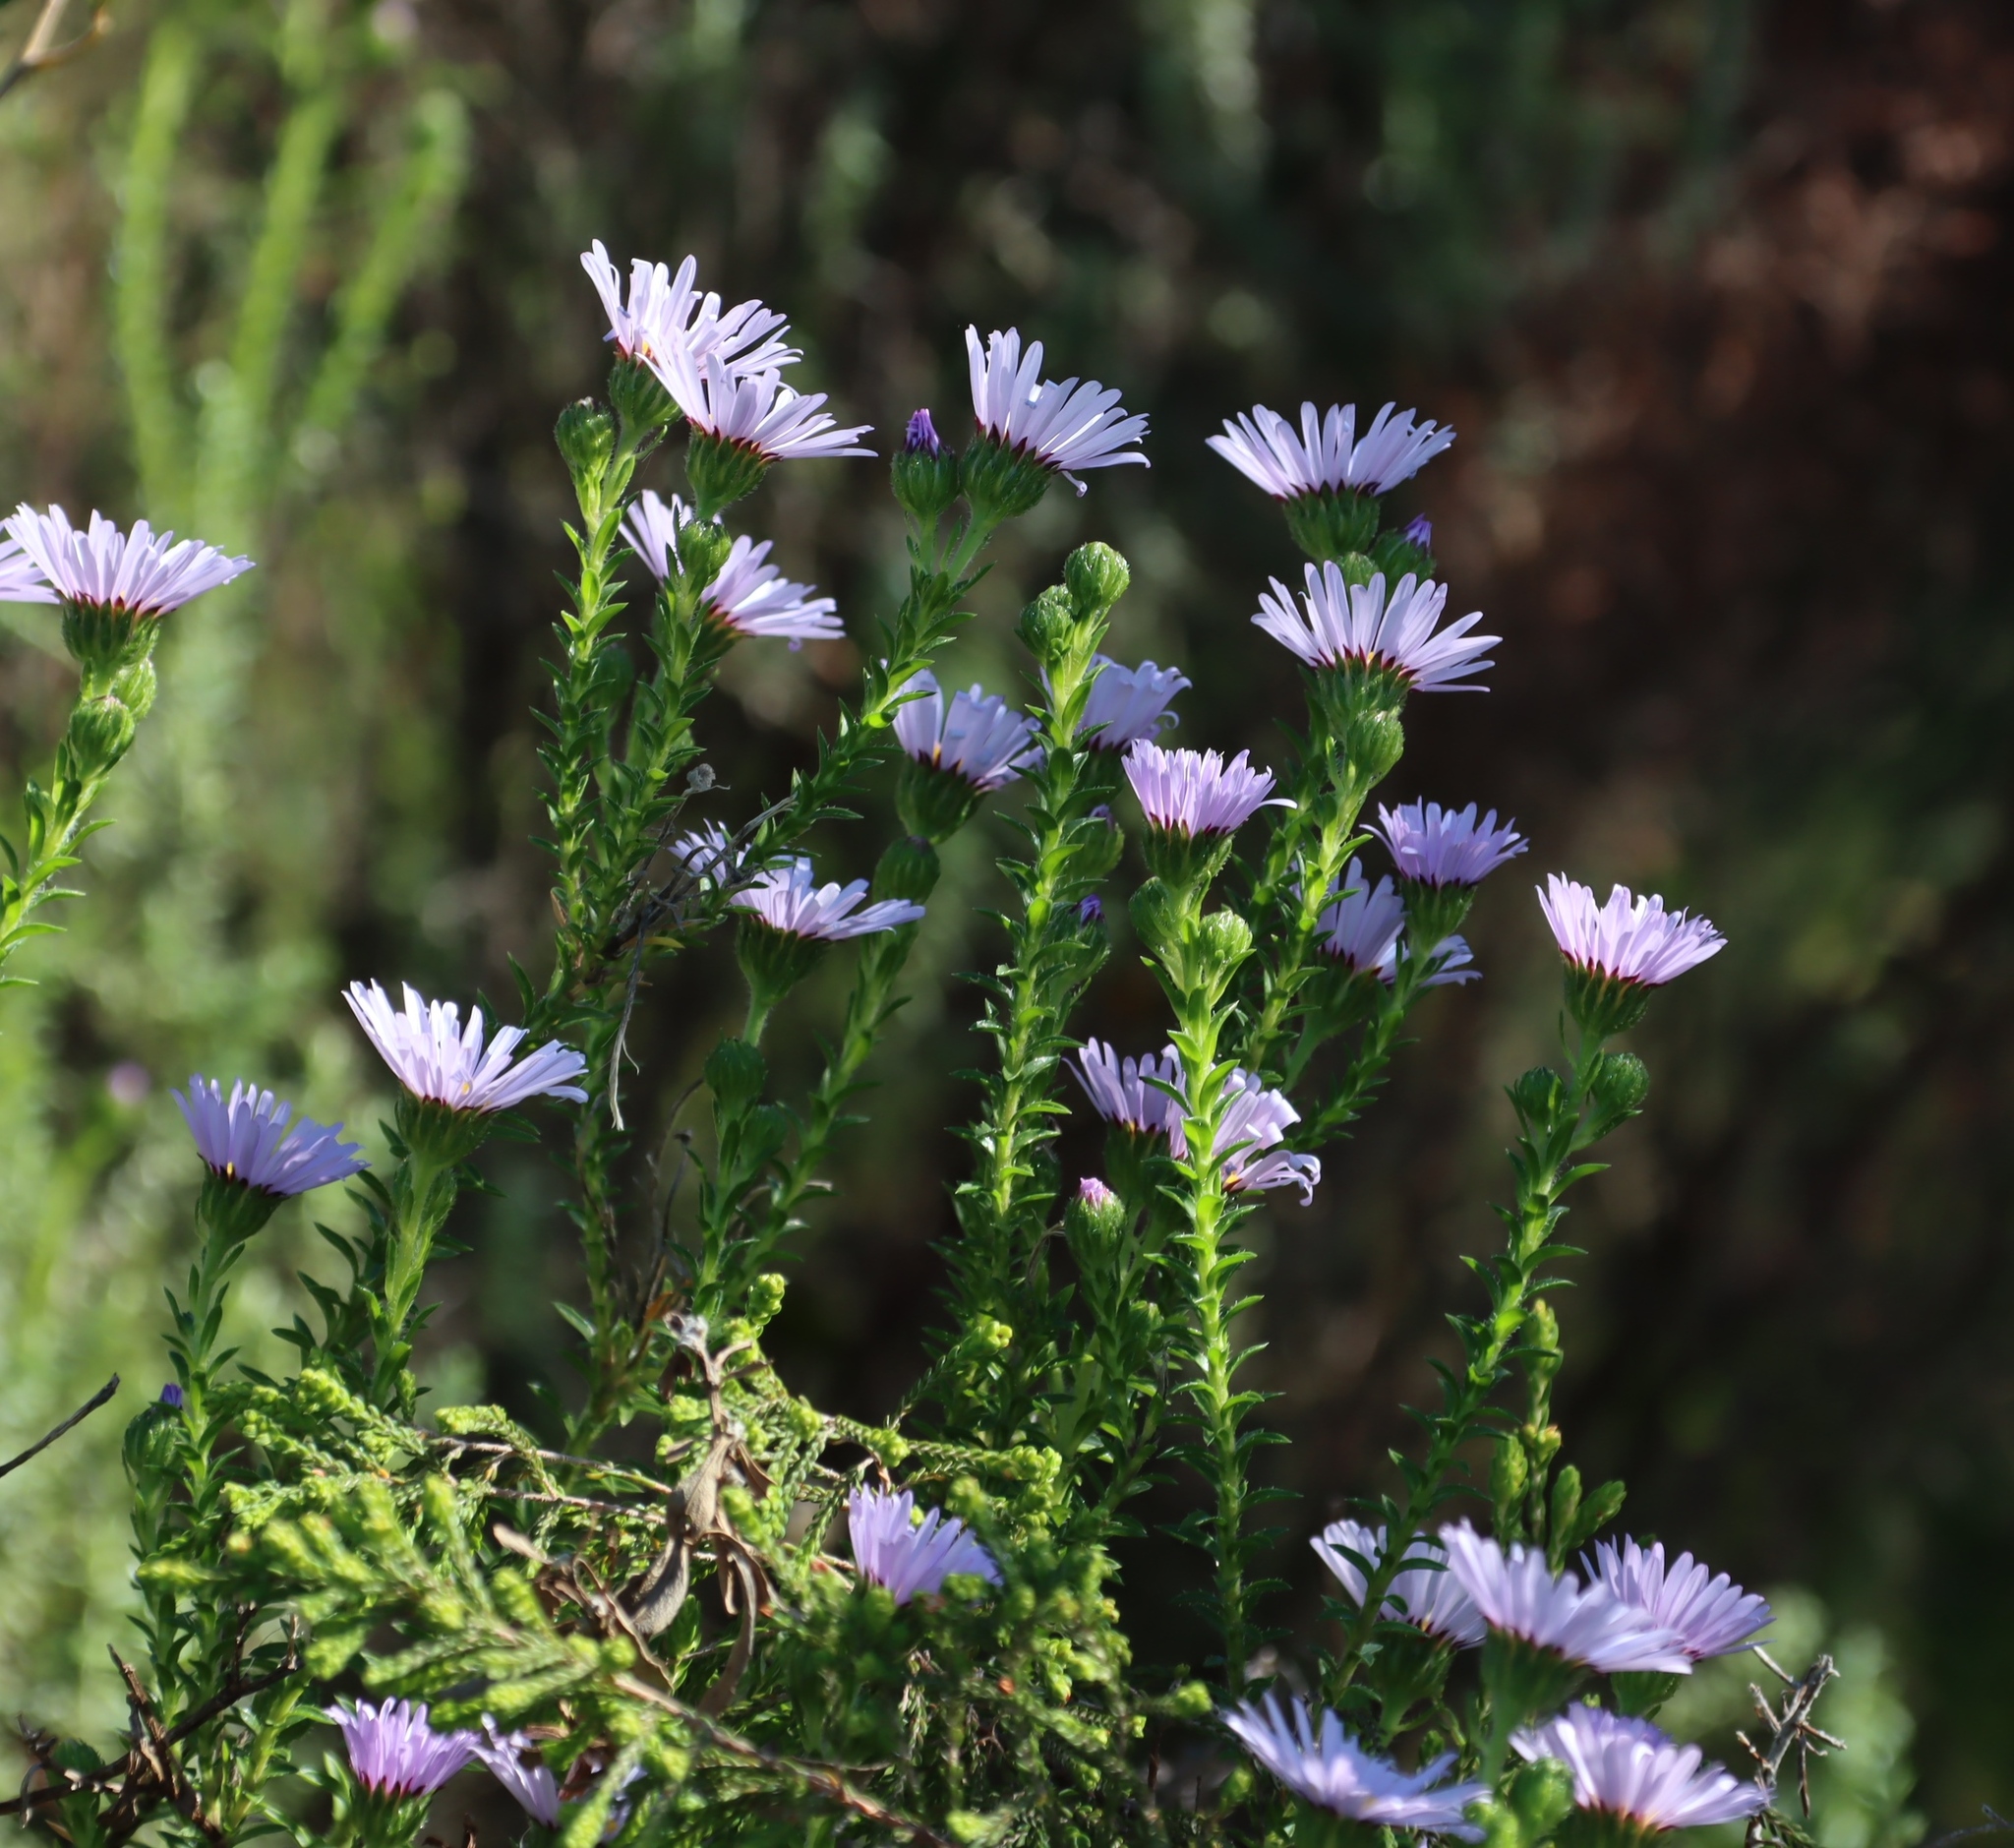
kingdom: Plantae
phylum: Tracheophyta
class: Magnoliopsida
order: Asterales
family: Asteraceae
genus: Felicia
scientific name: Felicia echinata
